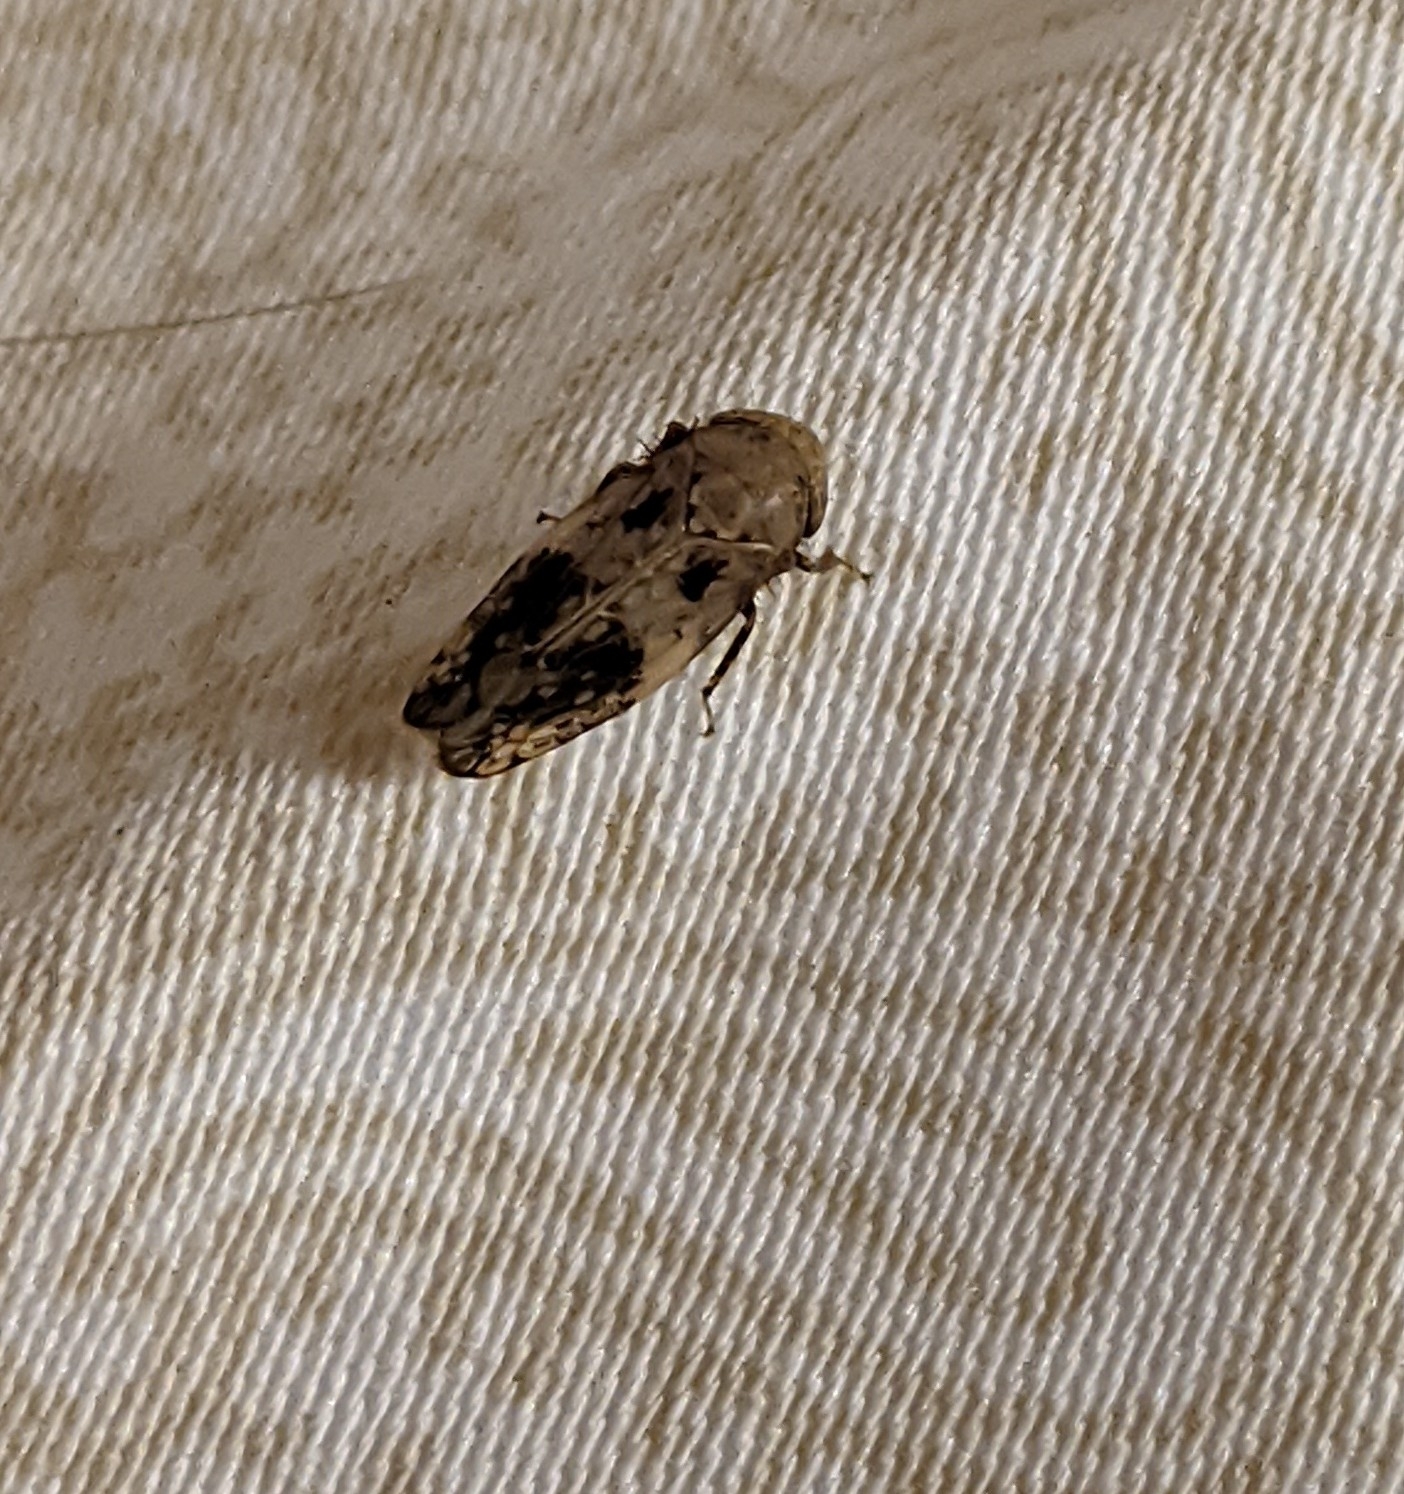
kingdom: Animalia
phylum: Arthropoda
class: Insecta
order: Hemiptera
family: Cicadellidae
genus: Menosoma
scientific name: Menosoma cinctum
